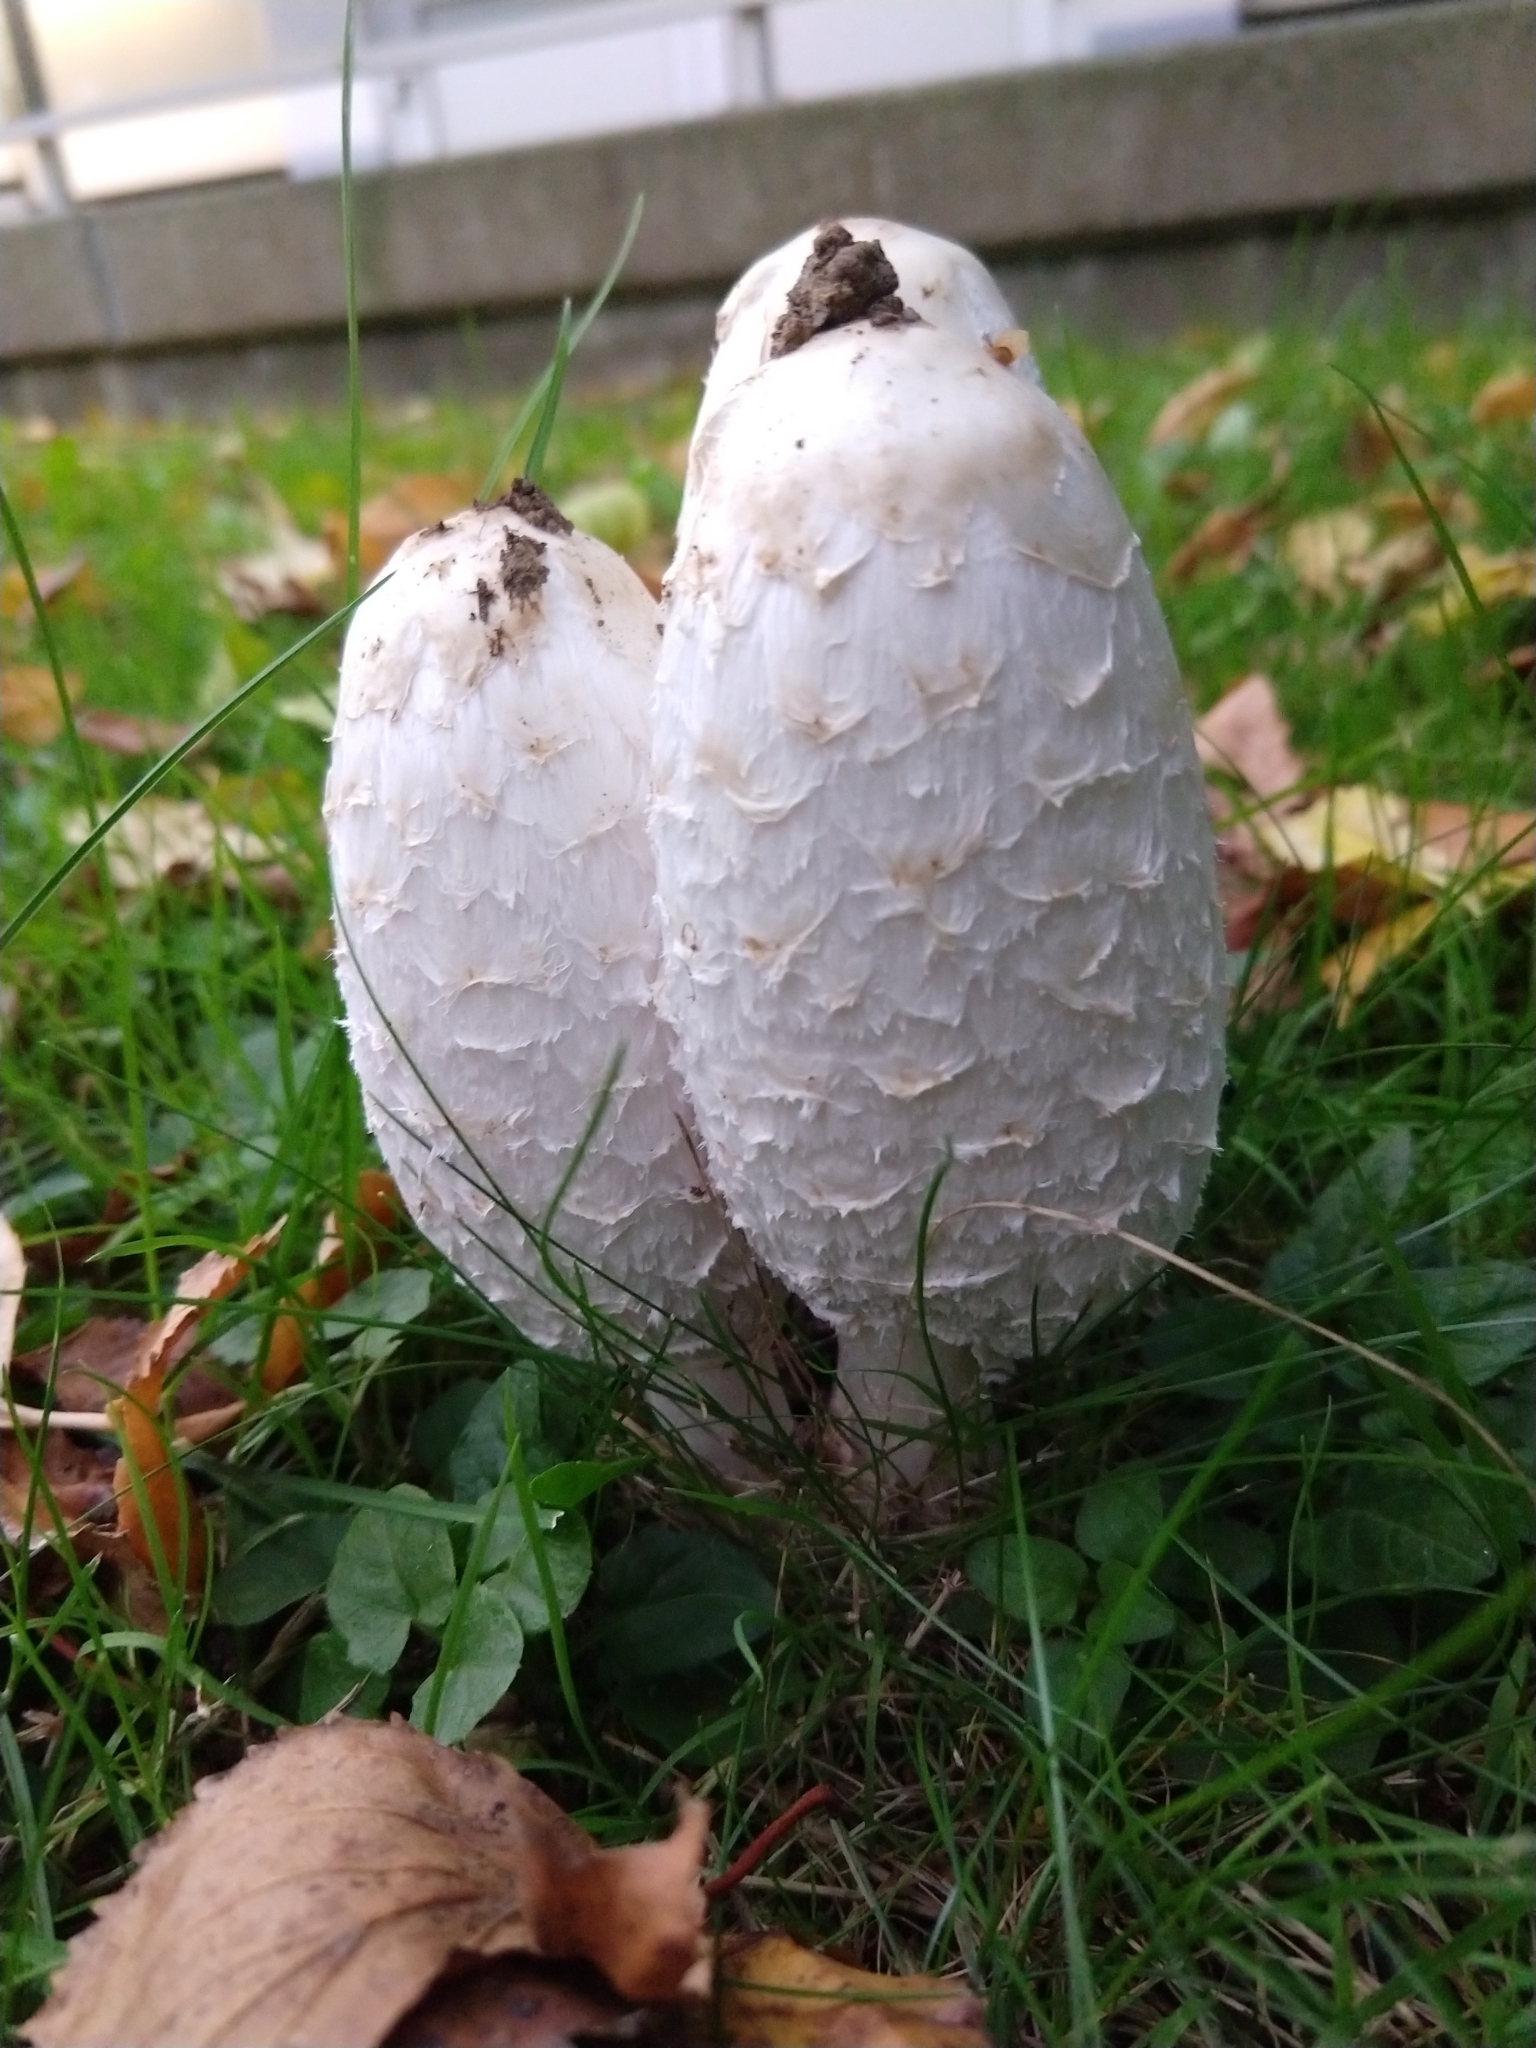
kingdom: Fungi
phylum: Basidiomycota
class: Agaricomycetes
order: Agaricales
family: Agaricaceae
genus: Coprinus
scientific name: Coprinus comatus
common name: Lawyer's wig
